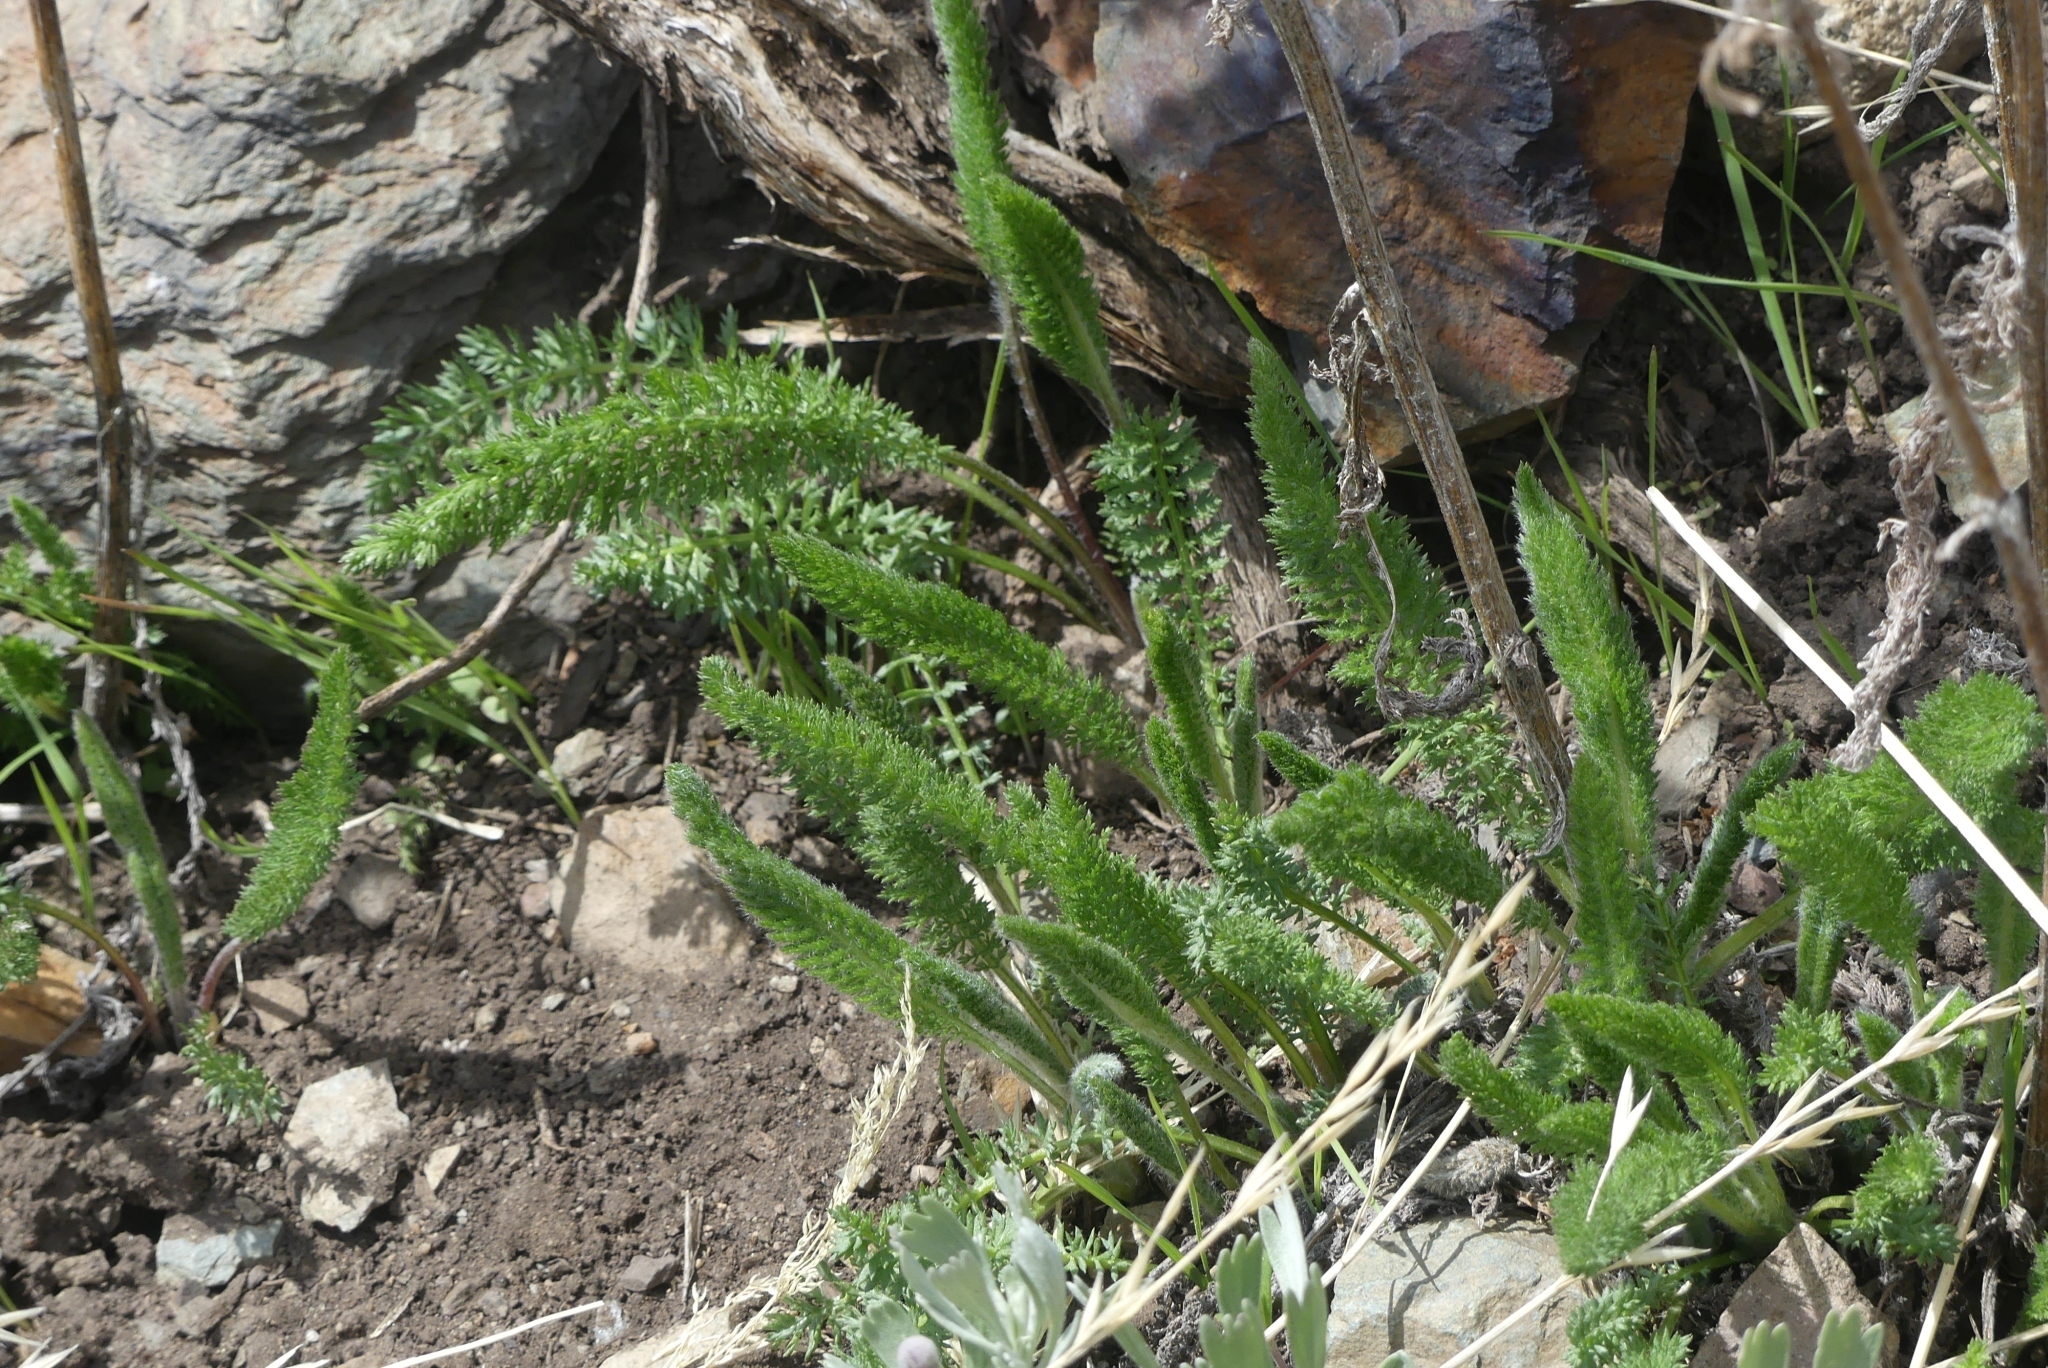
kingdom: Plantae
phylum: Tracheophyta
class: Magnoliopsida
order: Asterales
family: Asteraceae
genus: Achillea
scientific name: Achillea millefolium
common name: Yarrow
